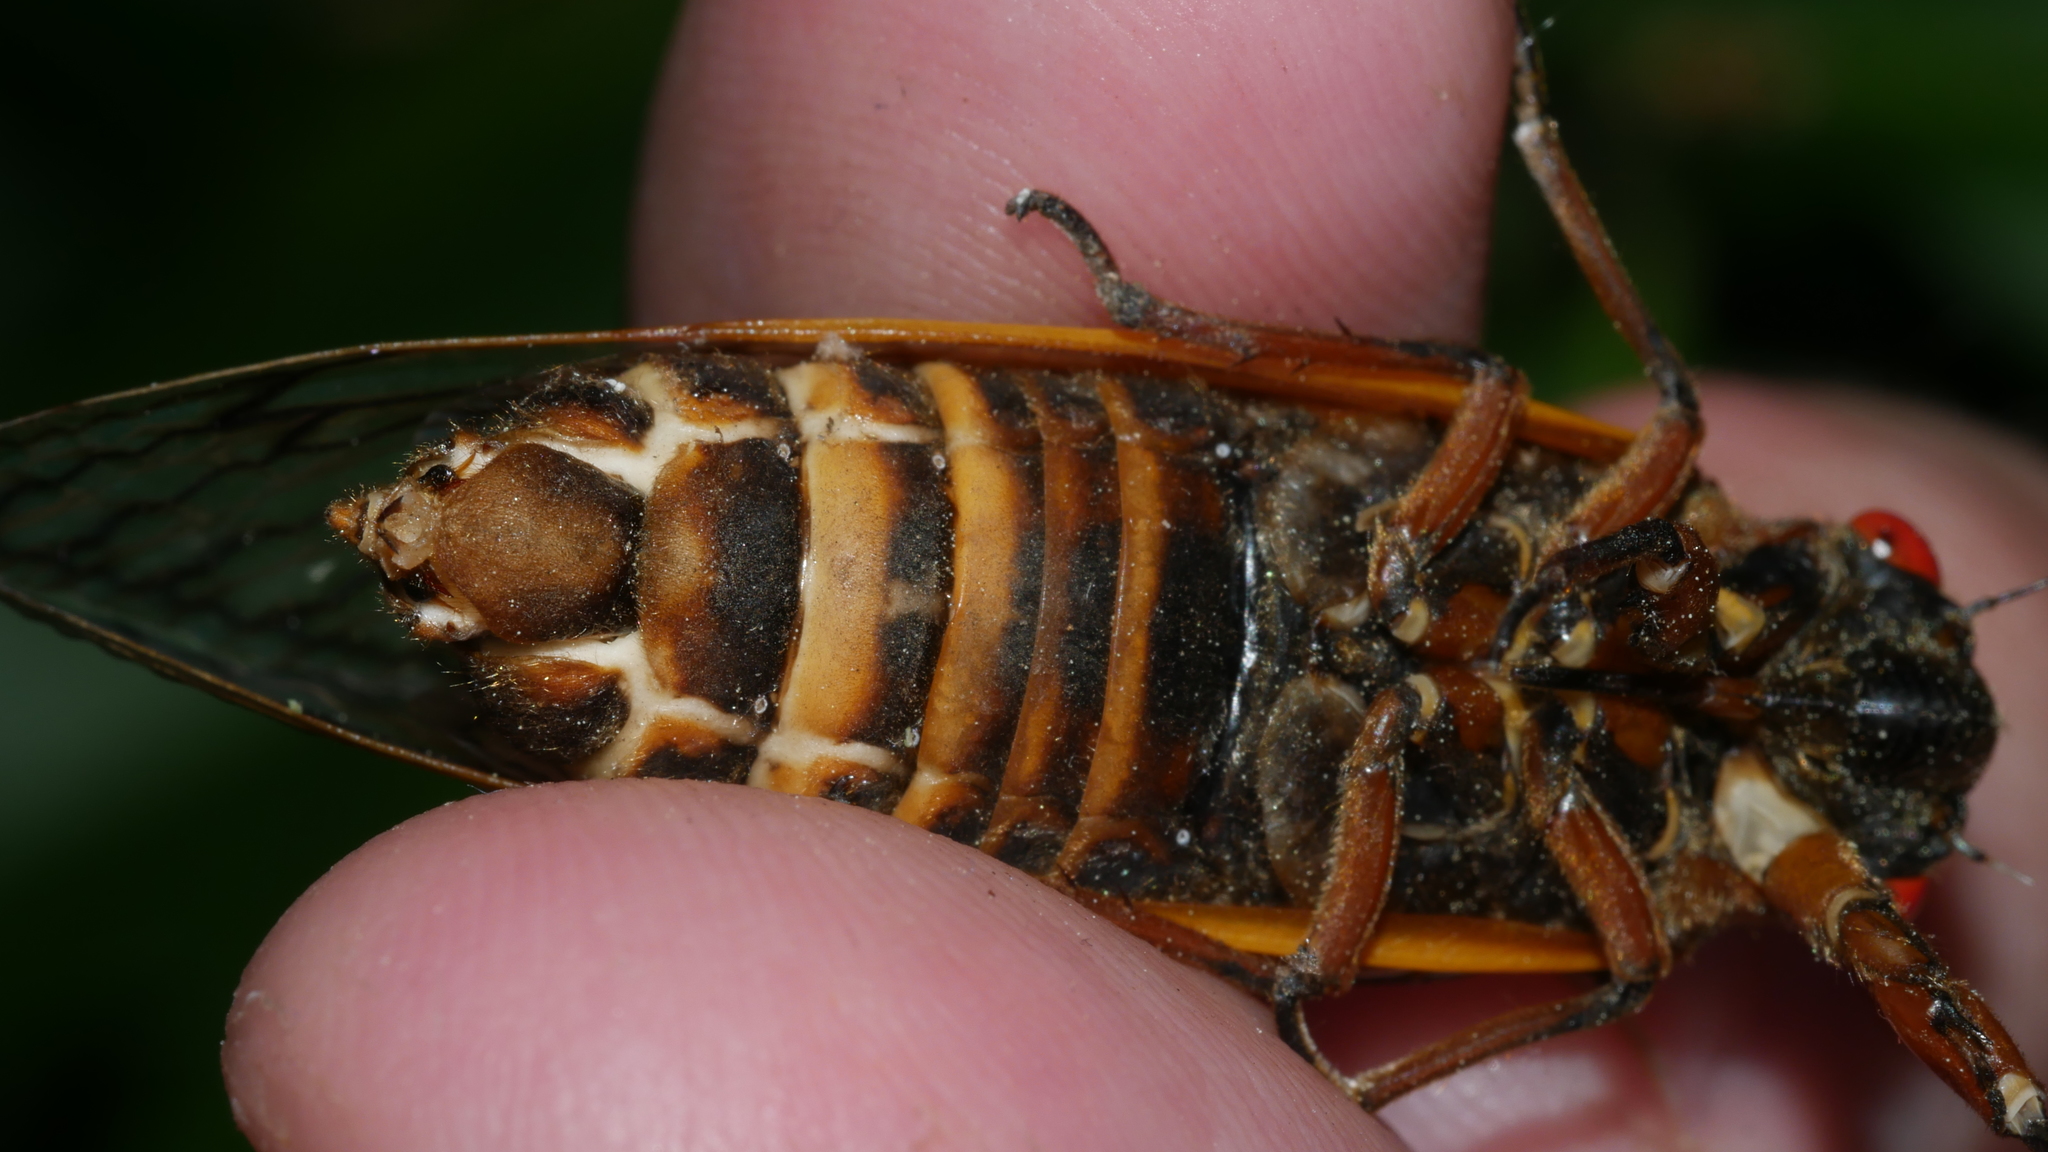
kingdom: Animalia
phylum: Arthropoda
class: Insecta
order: Hemiptera
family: Cicadidae
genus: Magicicada
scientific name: Magicicada septendecim
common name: Periodical cicada
